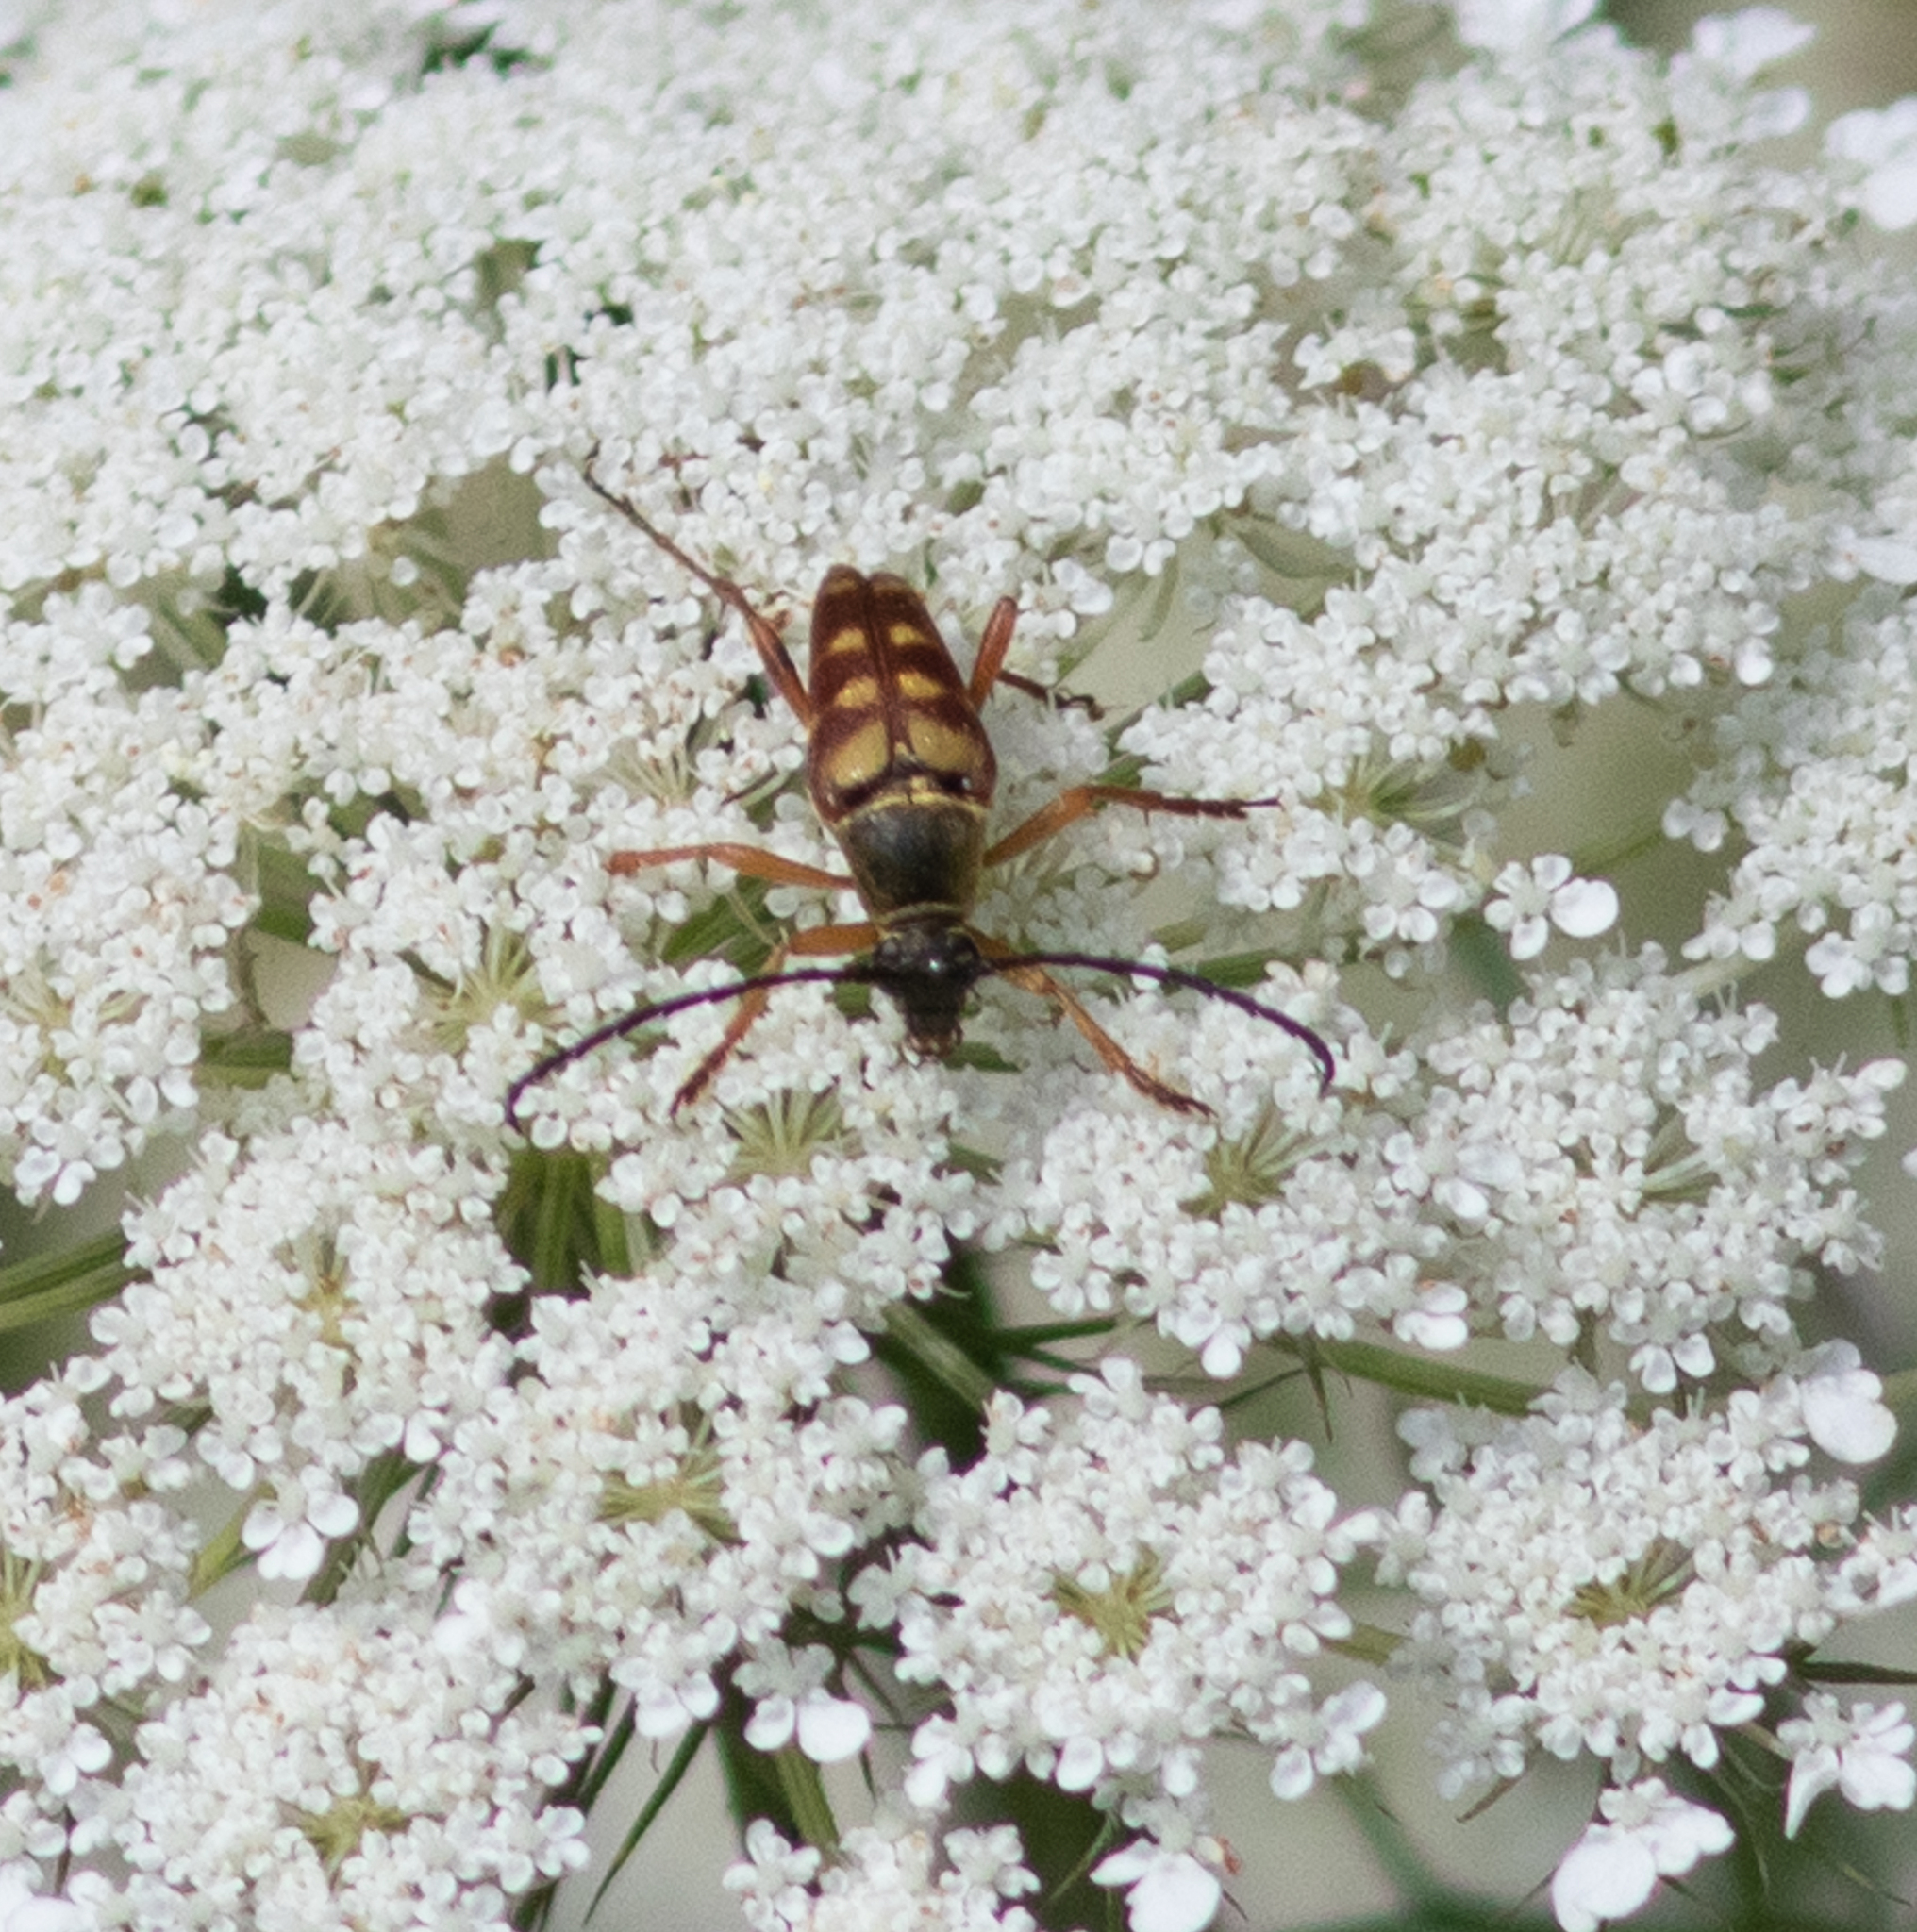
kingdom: Animalia
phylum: Arthropoda
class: Insecta
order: Coleoptera
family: Cerambycidae
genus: Typocerus
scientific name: Typocerus velutinus
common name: Banded longhorn beetle
